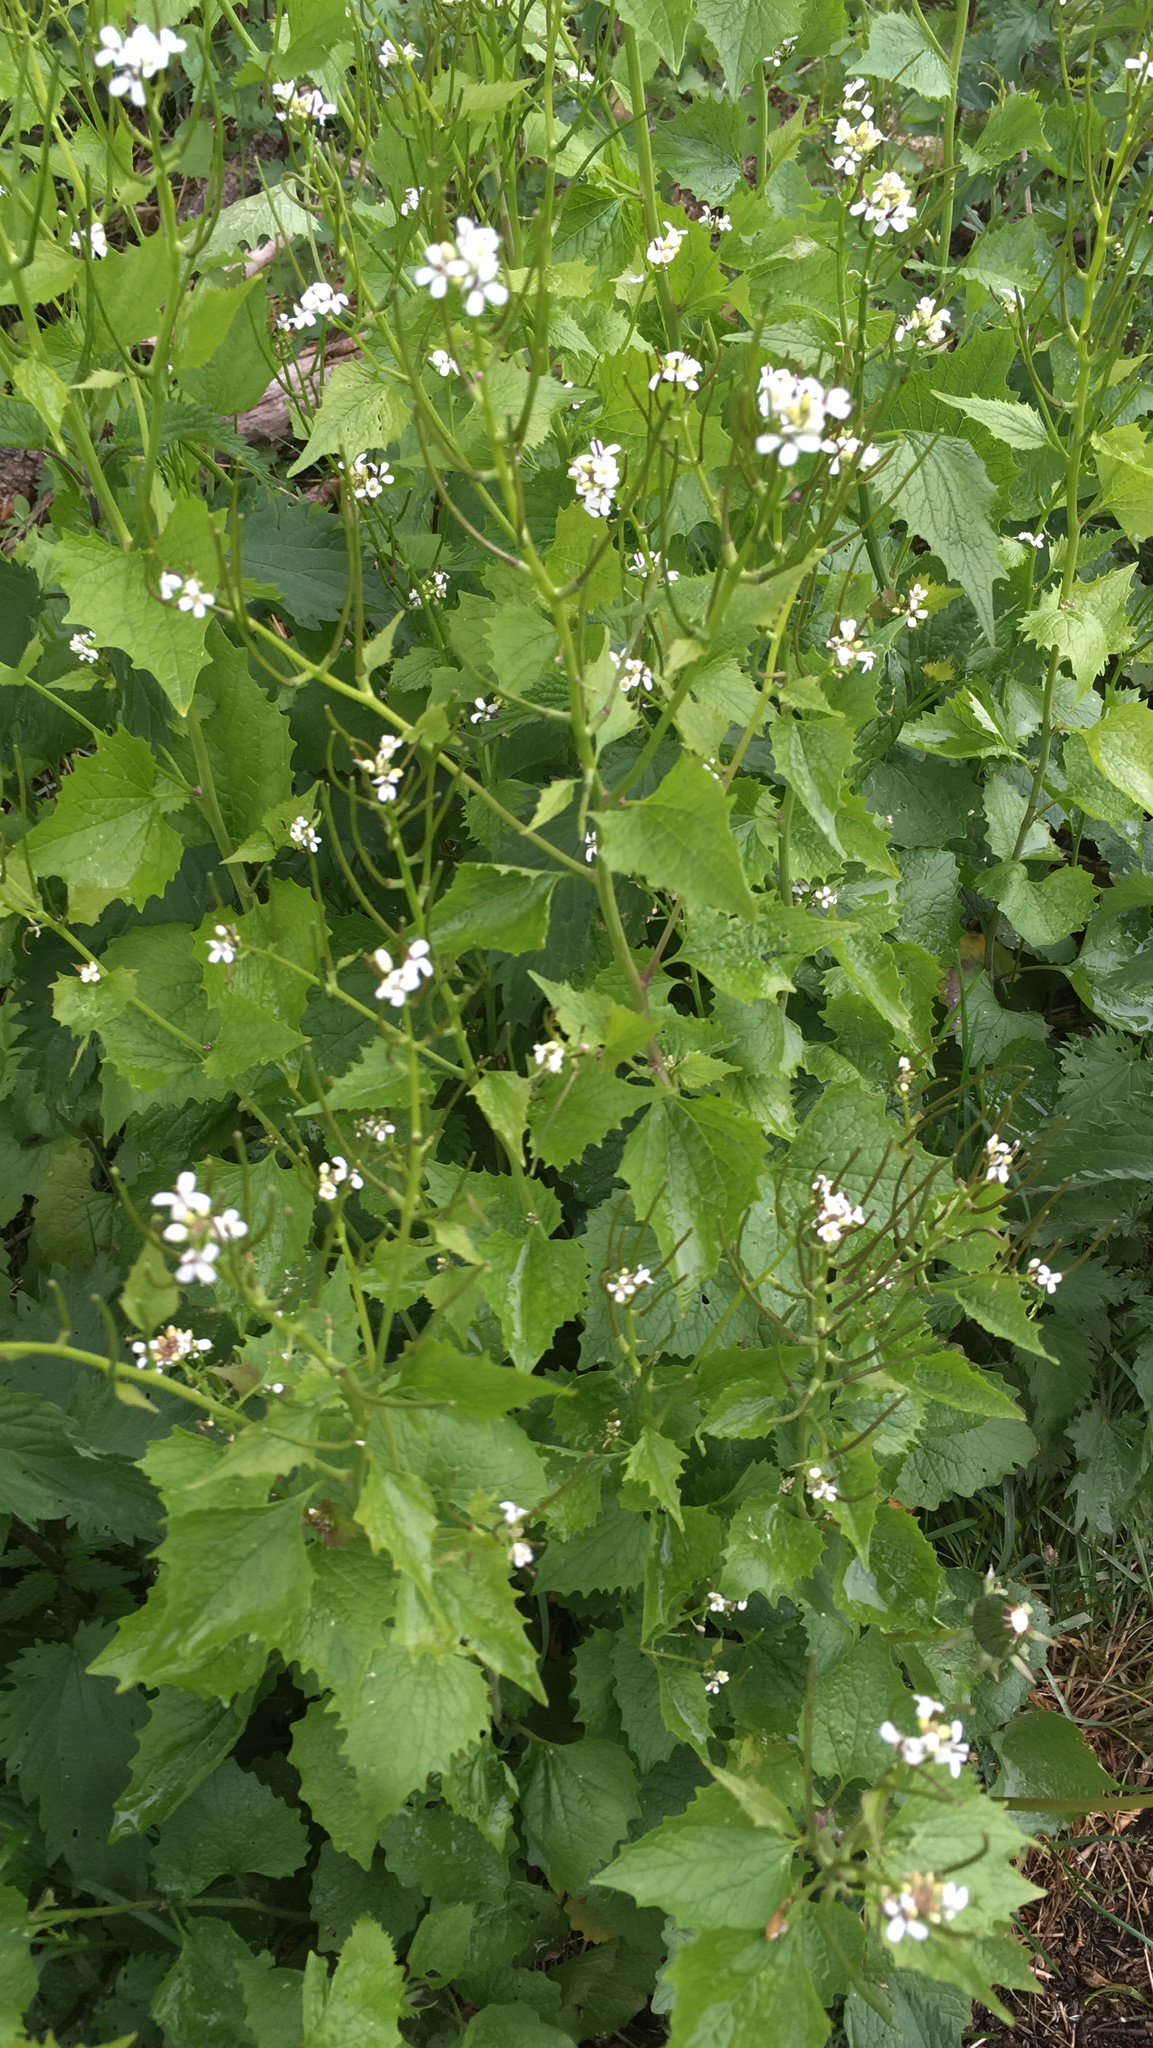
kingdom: Plantae
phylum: Tracheophyta
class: Magnoliopsida
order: Brassicales
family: Brassicaceae
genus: Alliaria
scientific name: Alliaria petiolata
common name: Garlic mustard
